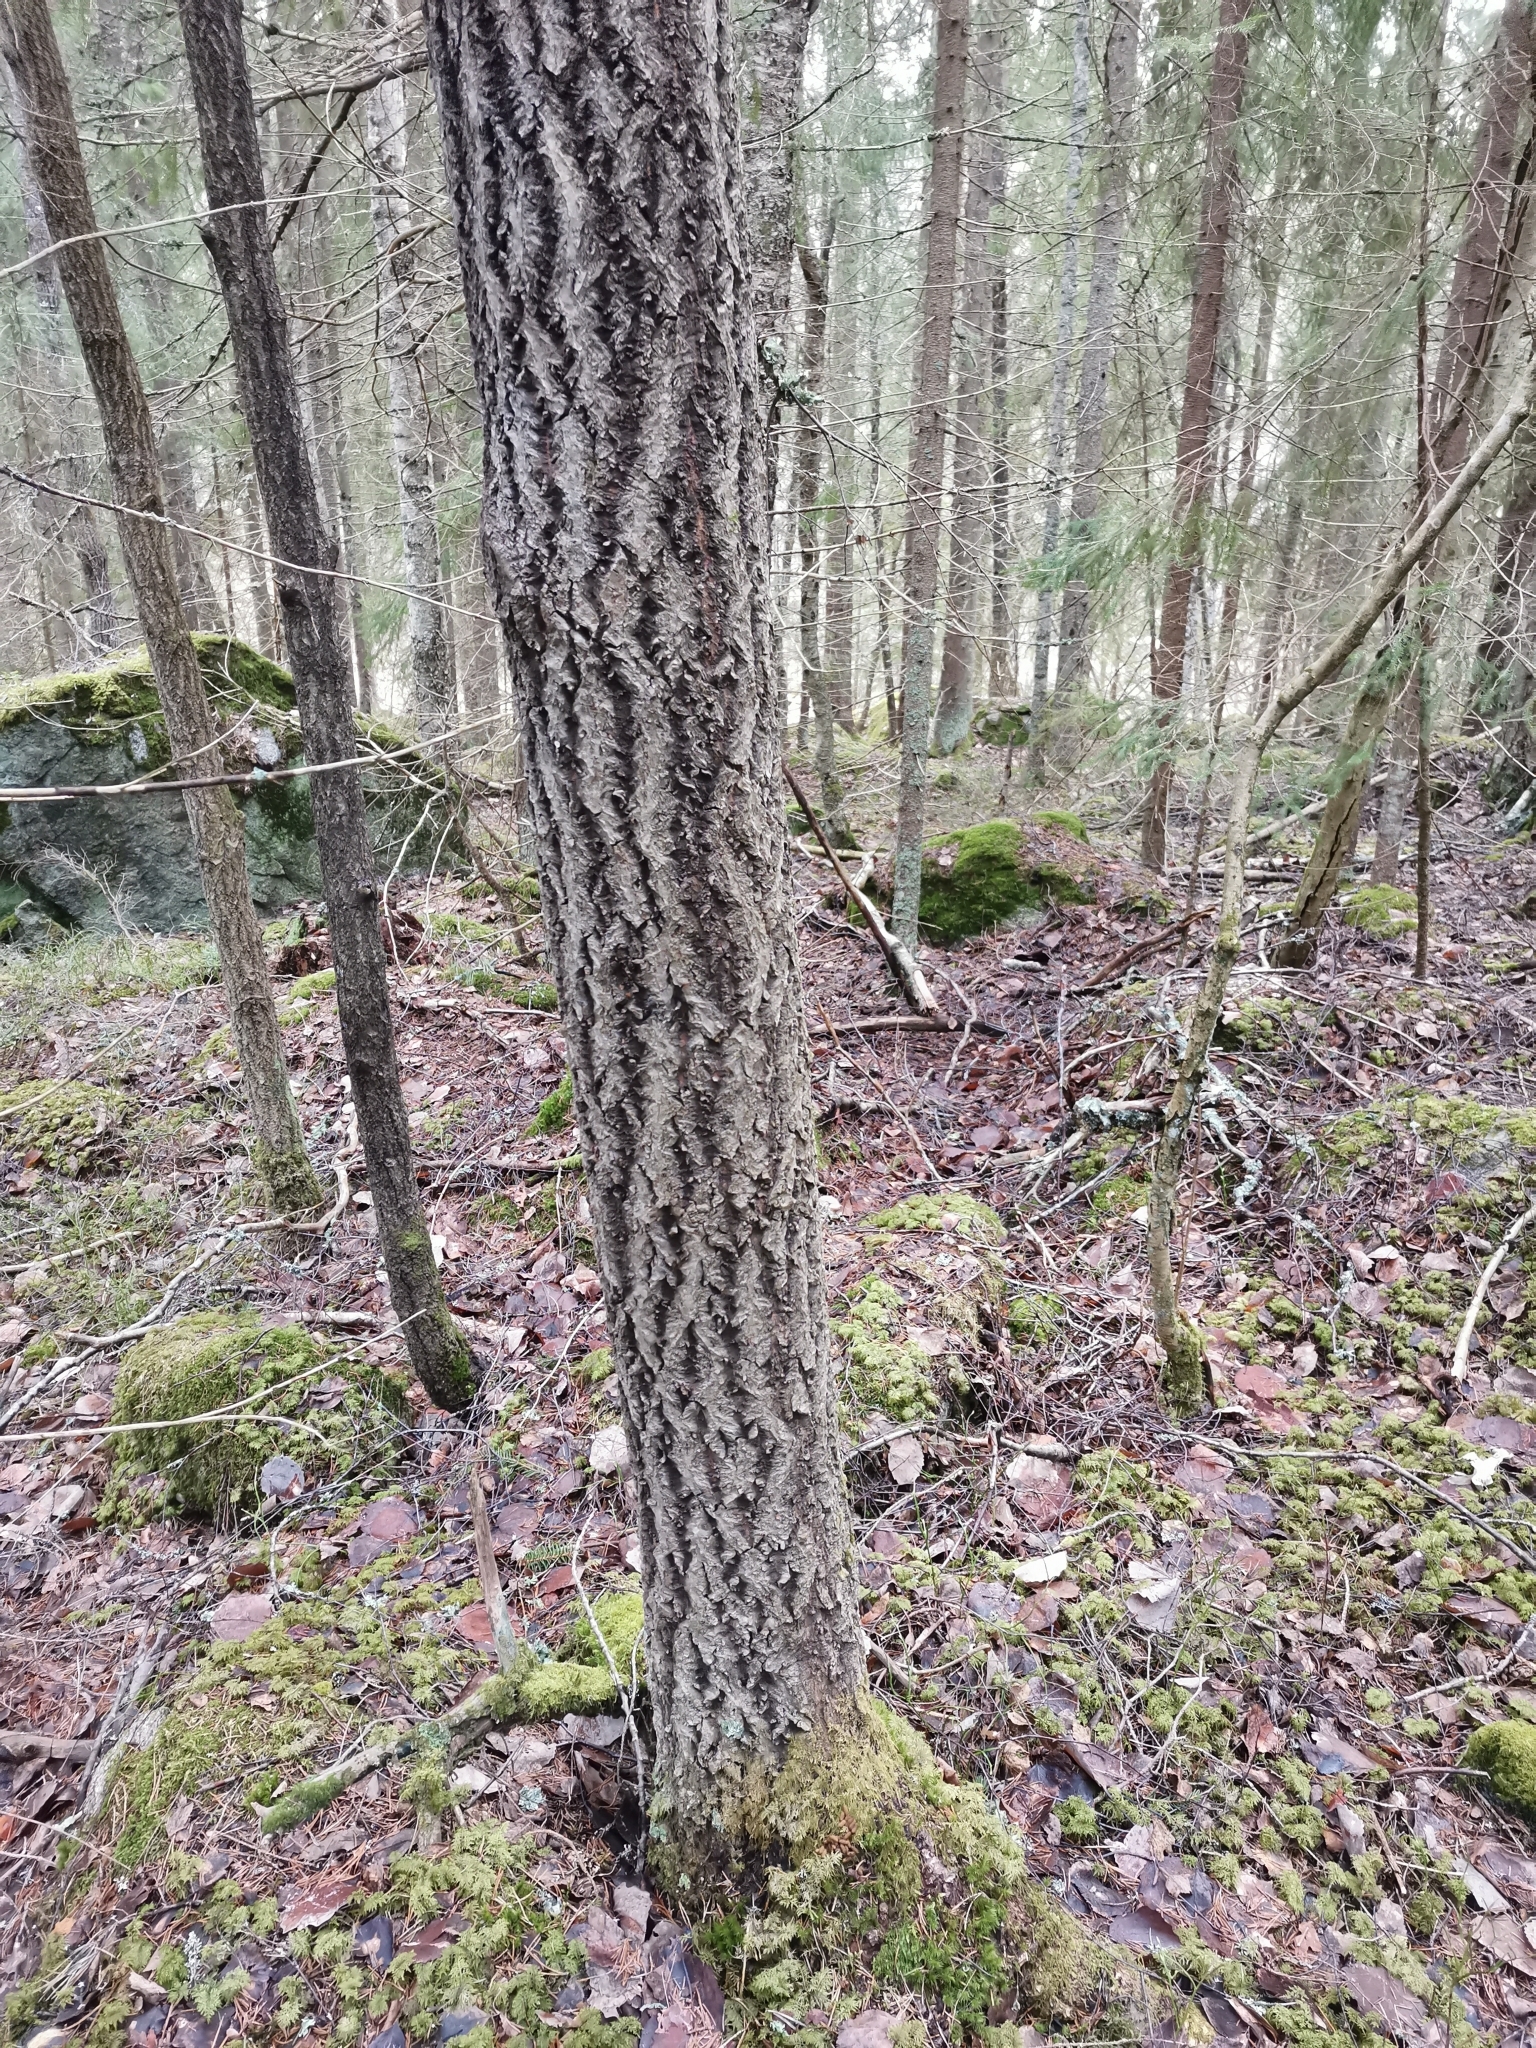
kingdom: Animalia
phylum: Chordata
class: Mammalia
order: Rodentia
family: Sciuridae
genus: Pteromys
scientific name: Pteromys volans
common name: Siberian flying squirrel
